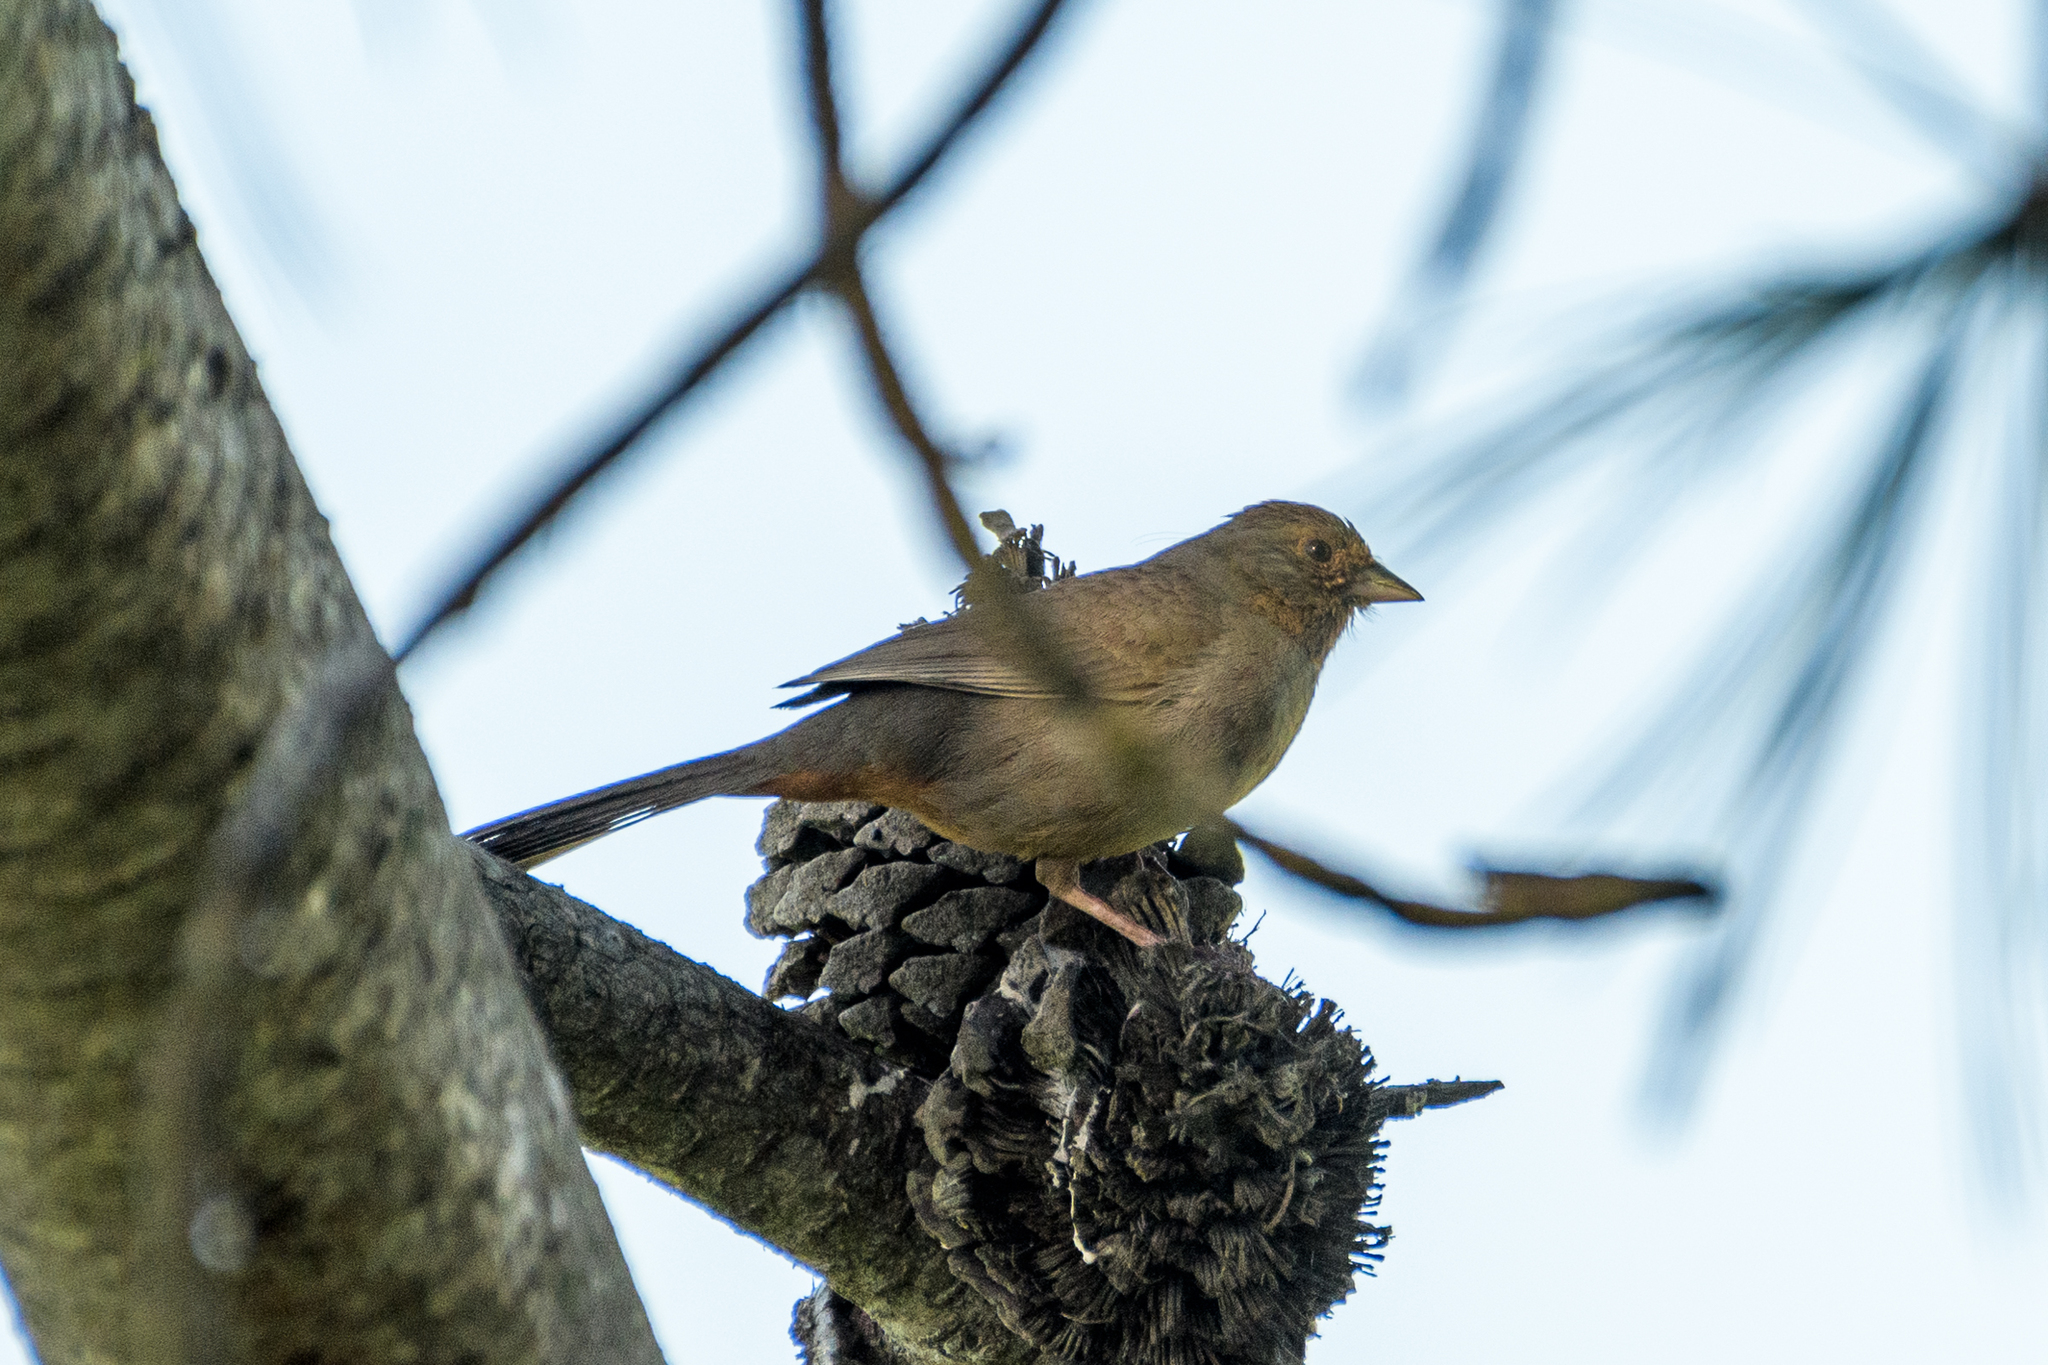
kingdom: Animalia
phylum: Chordata
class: Aves
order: Passeriformes
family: Passerellidae
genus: Melozone
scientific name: Melozone crissalis
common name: California towhee
